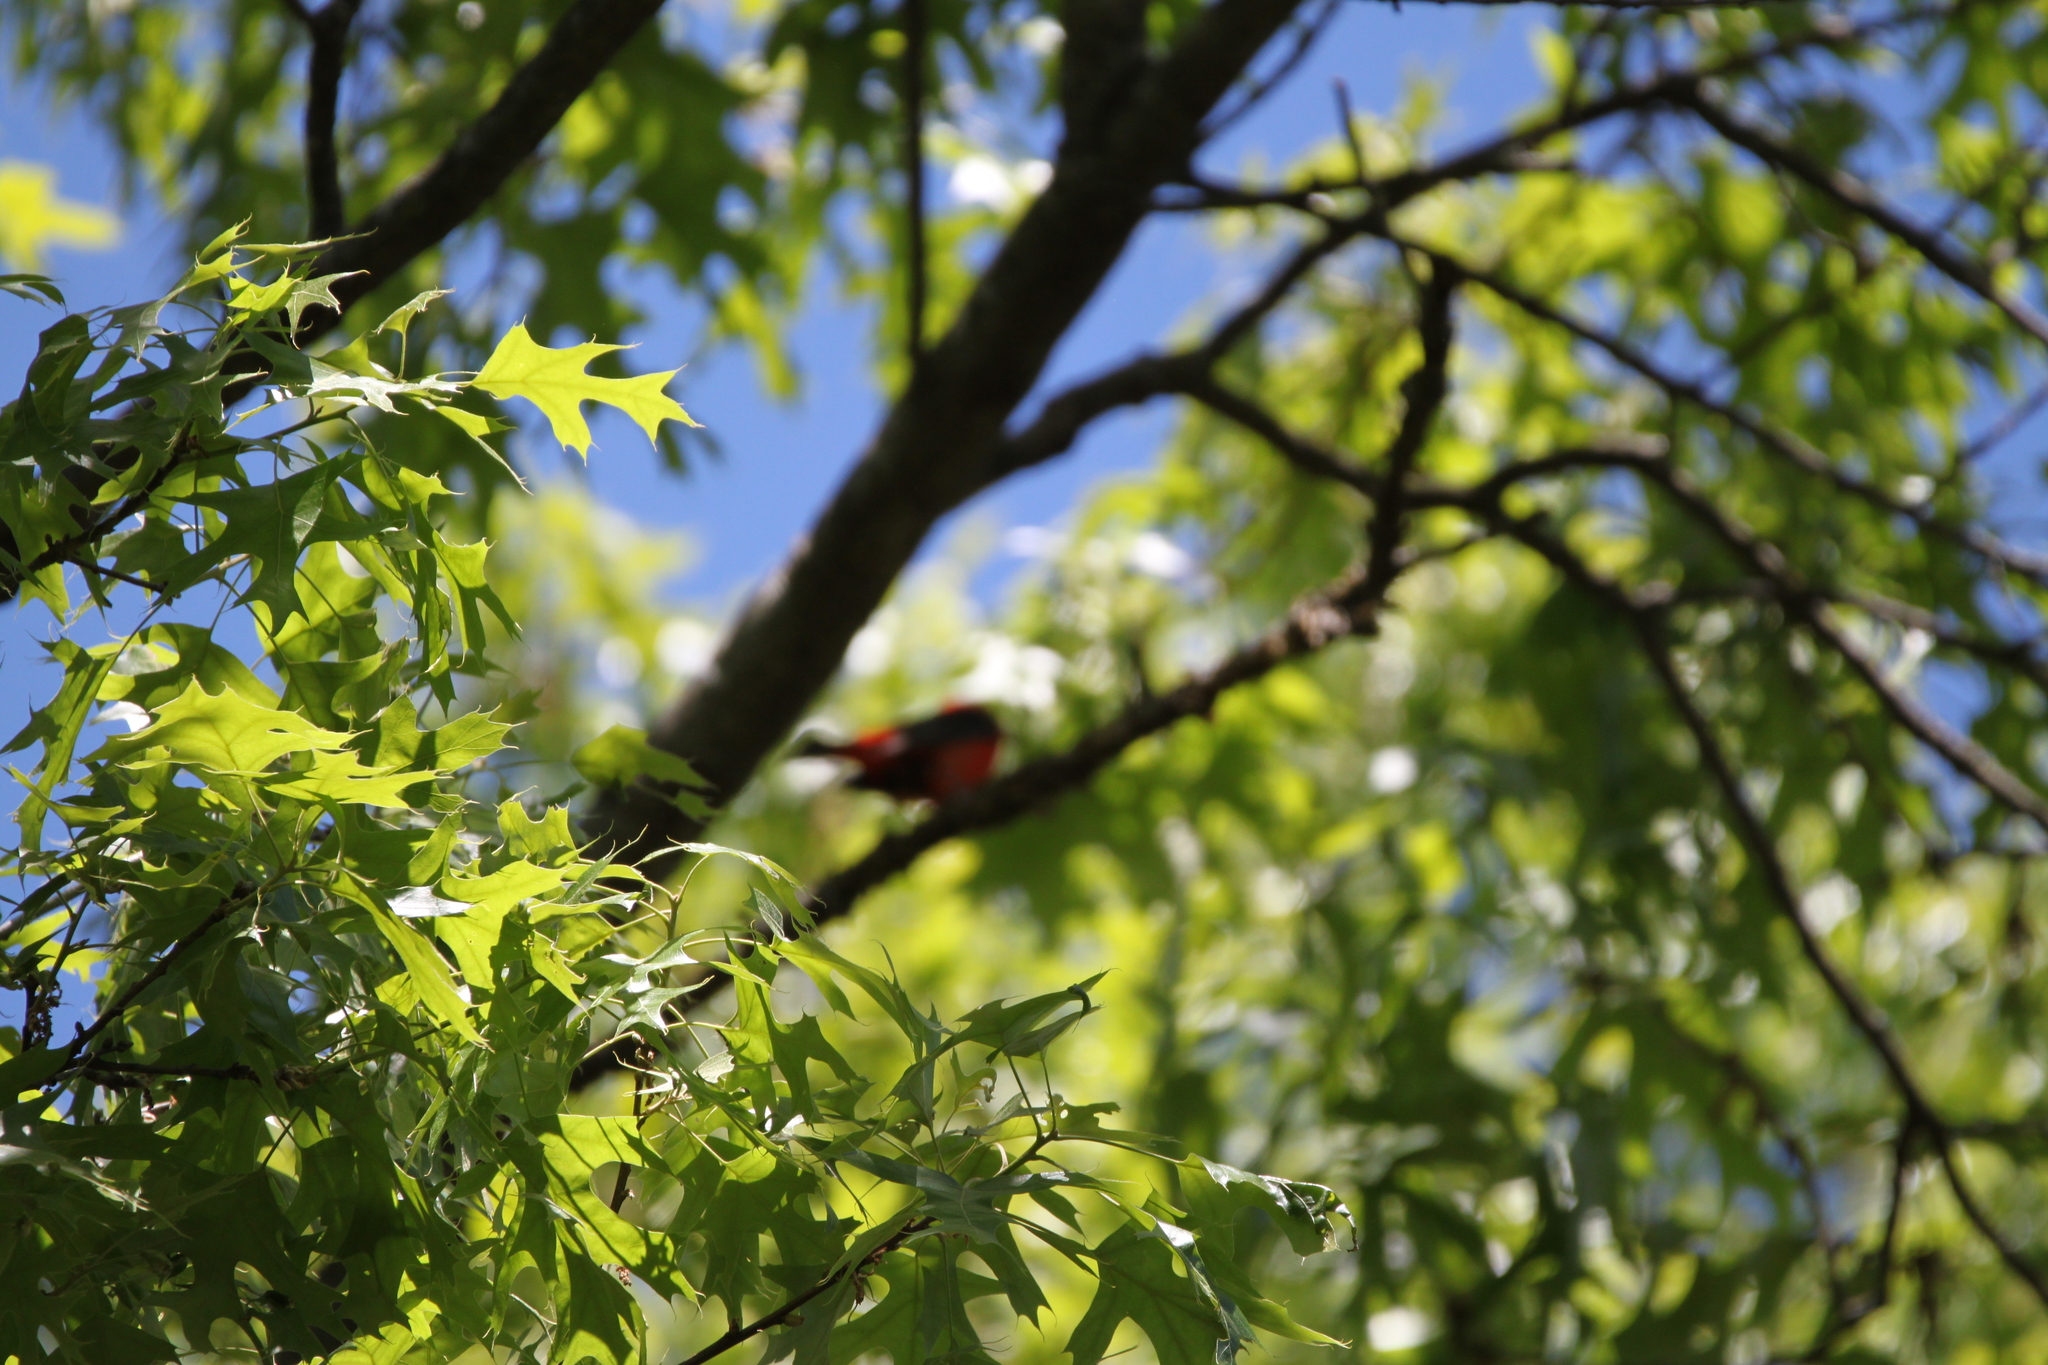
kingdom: Animalia
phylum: Chordata
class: Aves
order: Passeriformes
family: Cardinalidae
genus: Piranga
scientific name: Piranga olivacea
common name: Scarlet tanager
